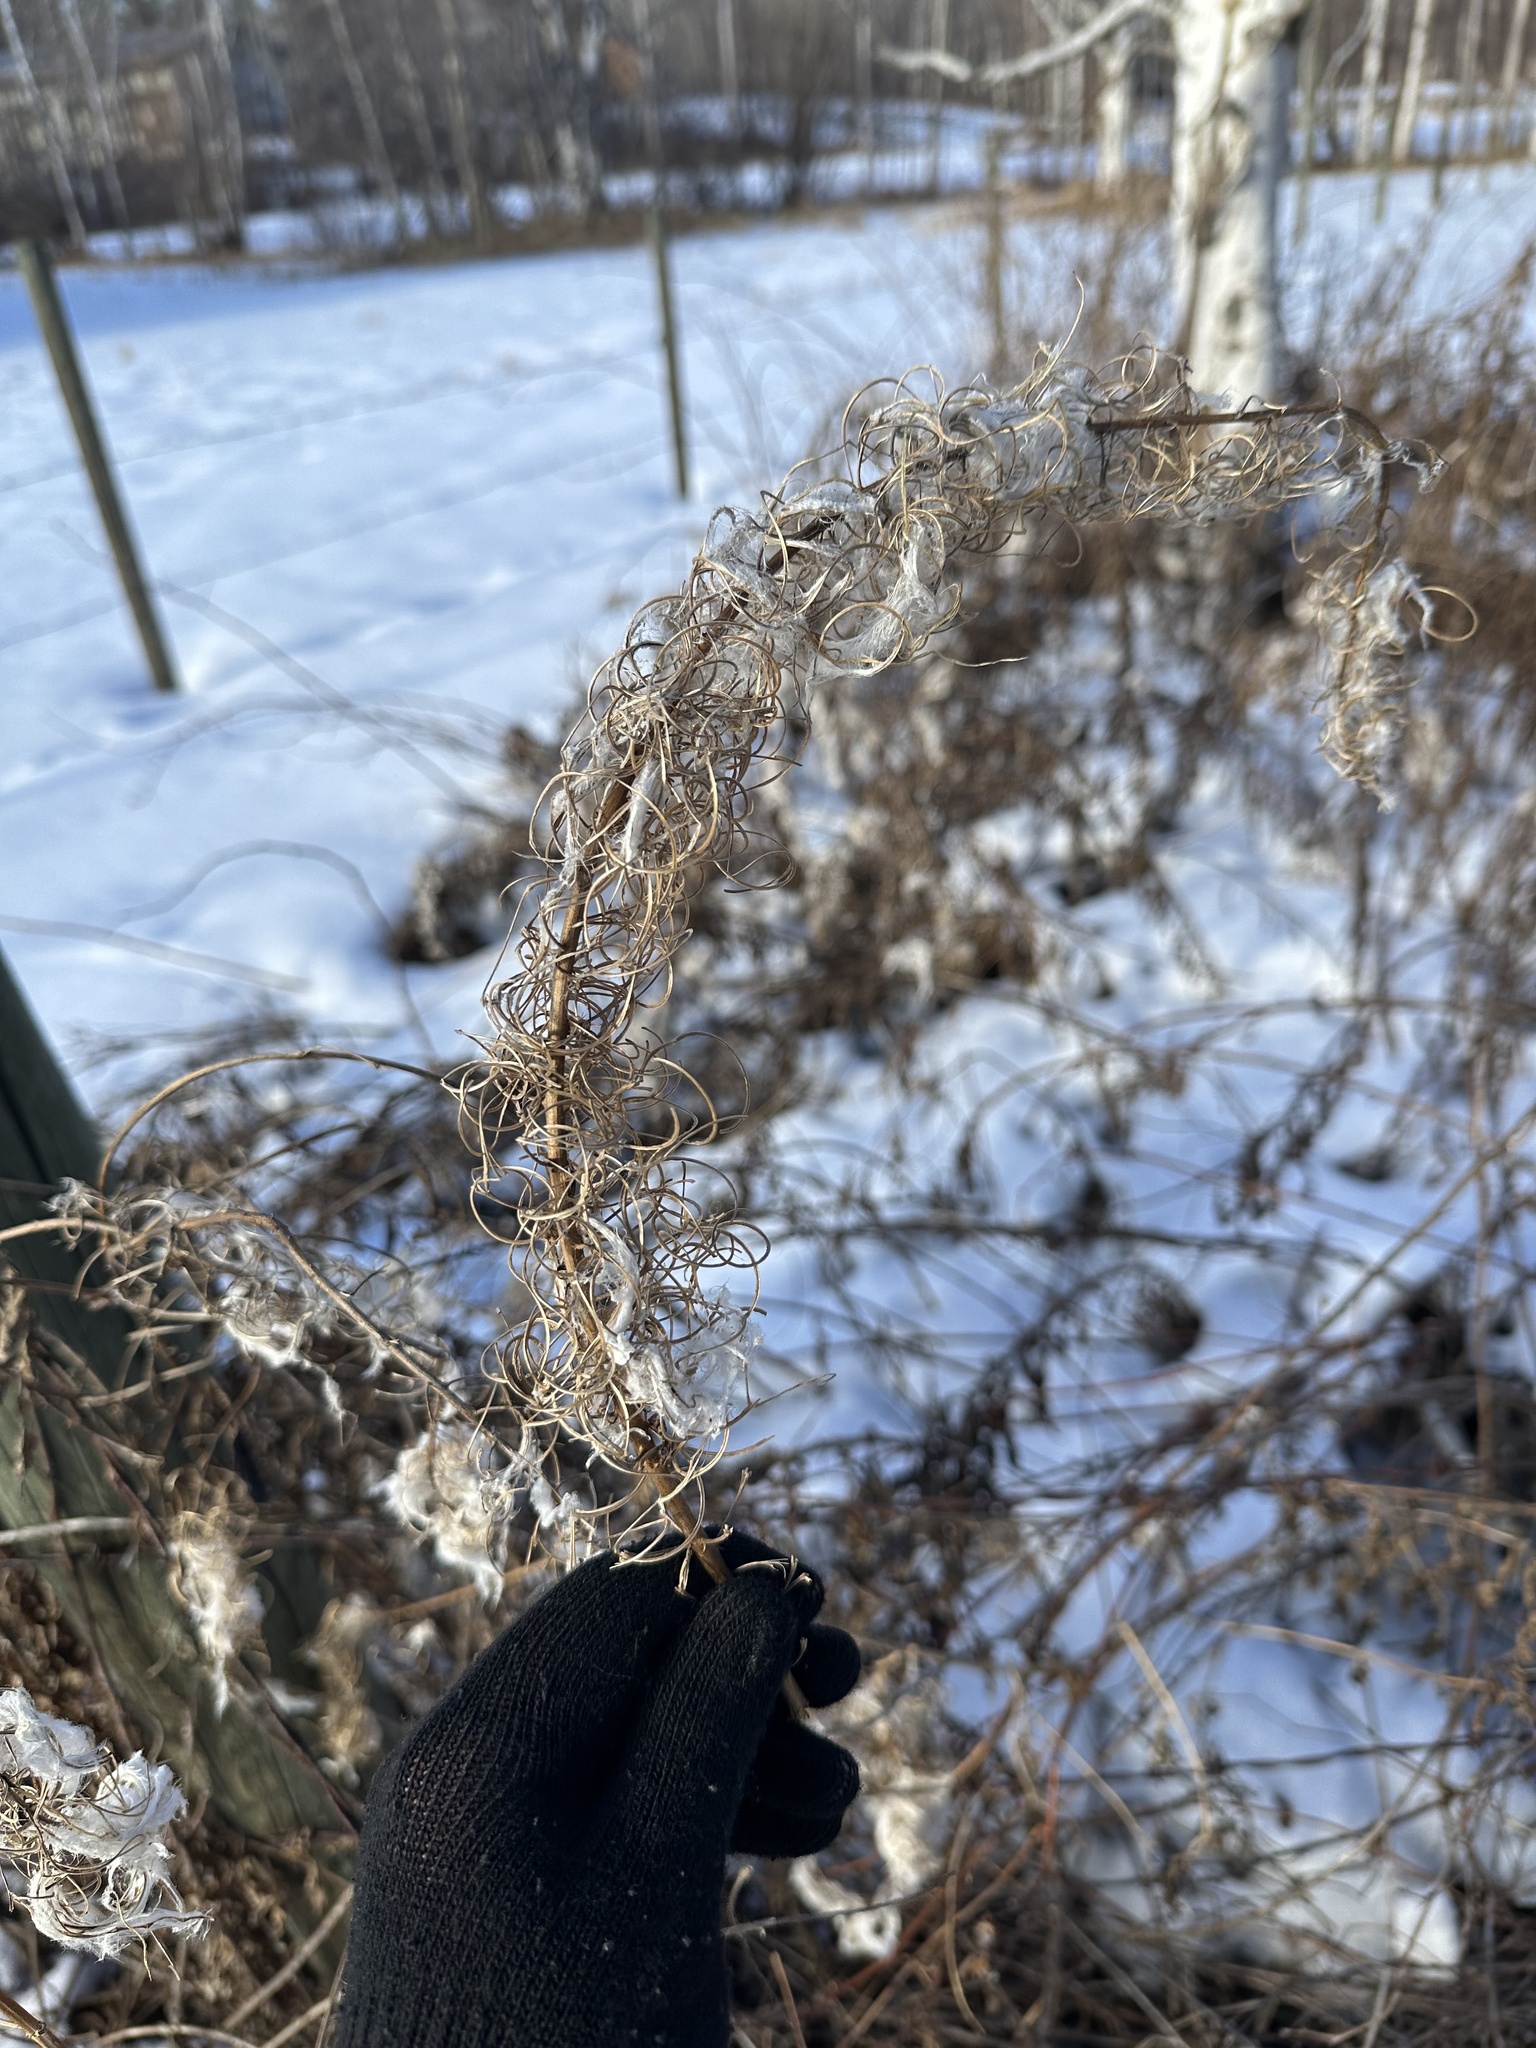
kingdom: Plantae
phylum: Tracheophyta
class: Magnoliopsida
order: Myrtales
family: Onagraceae
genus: Chamaenerion
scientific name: Chamaenerion angustifolium
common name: Fireweed
